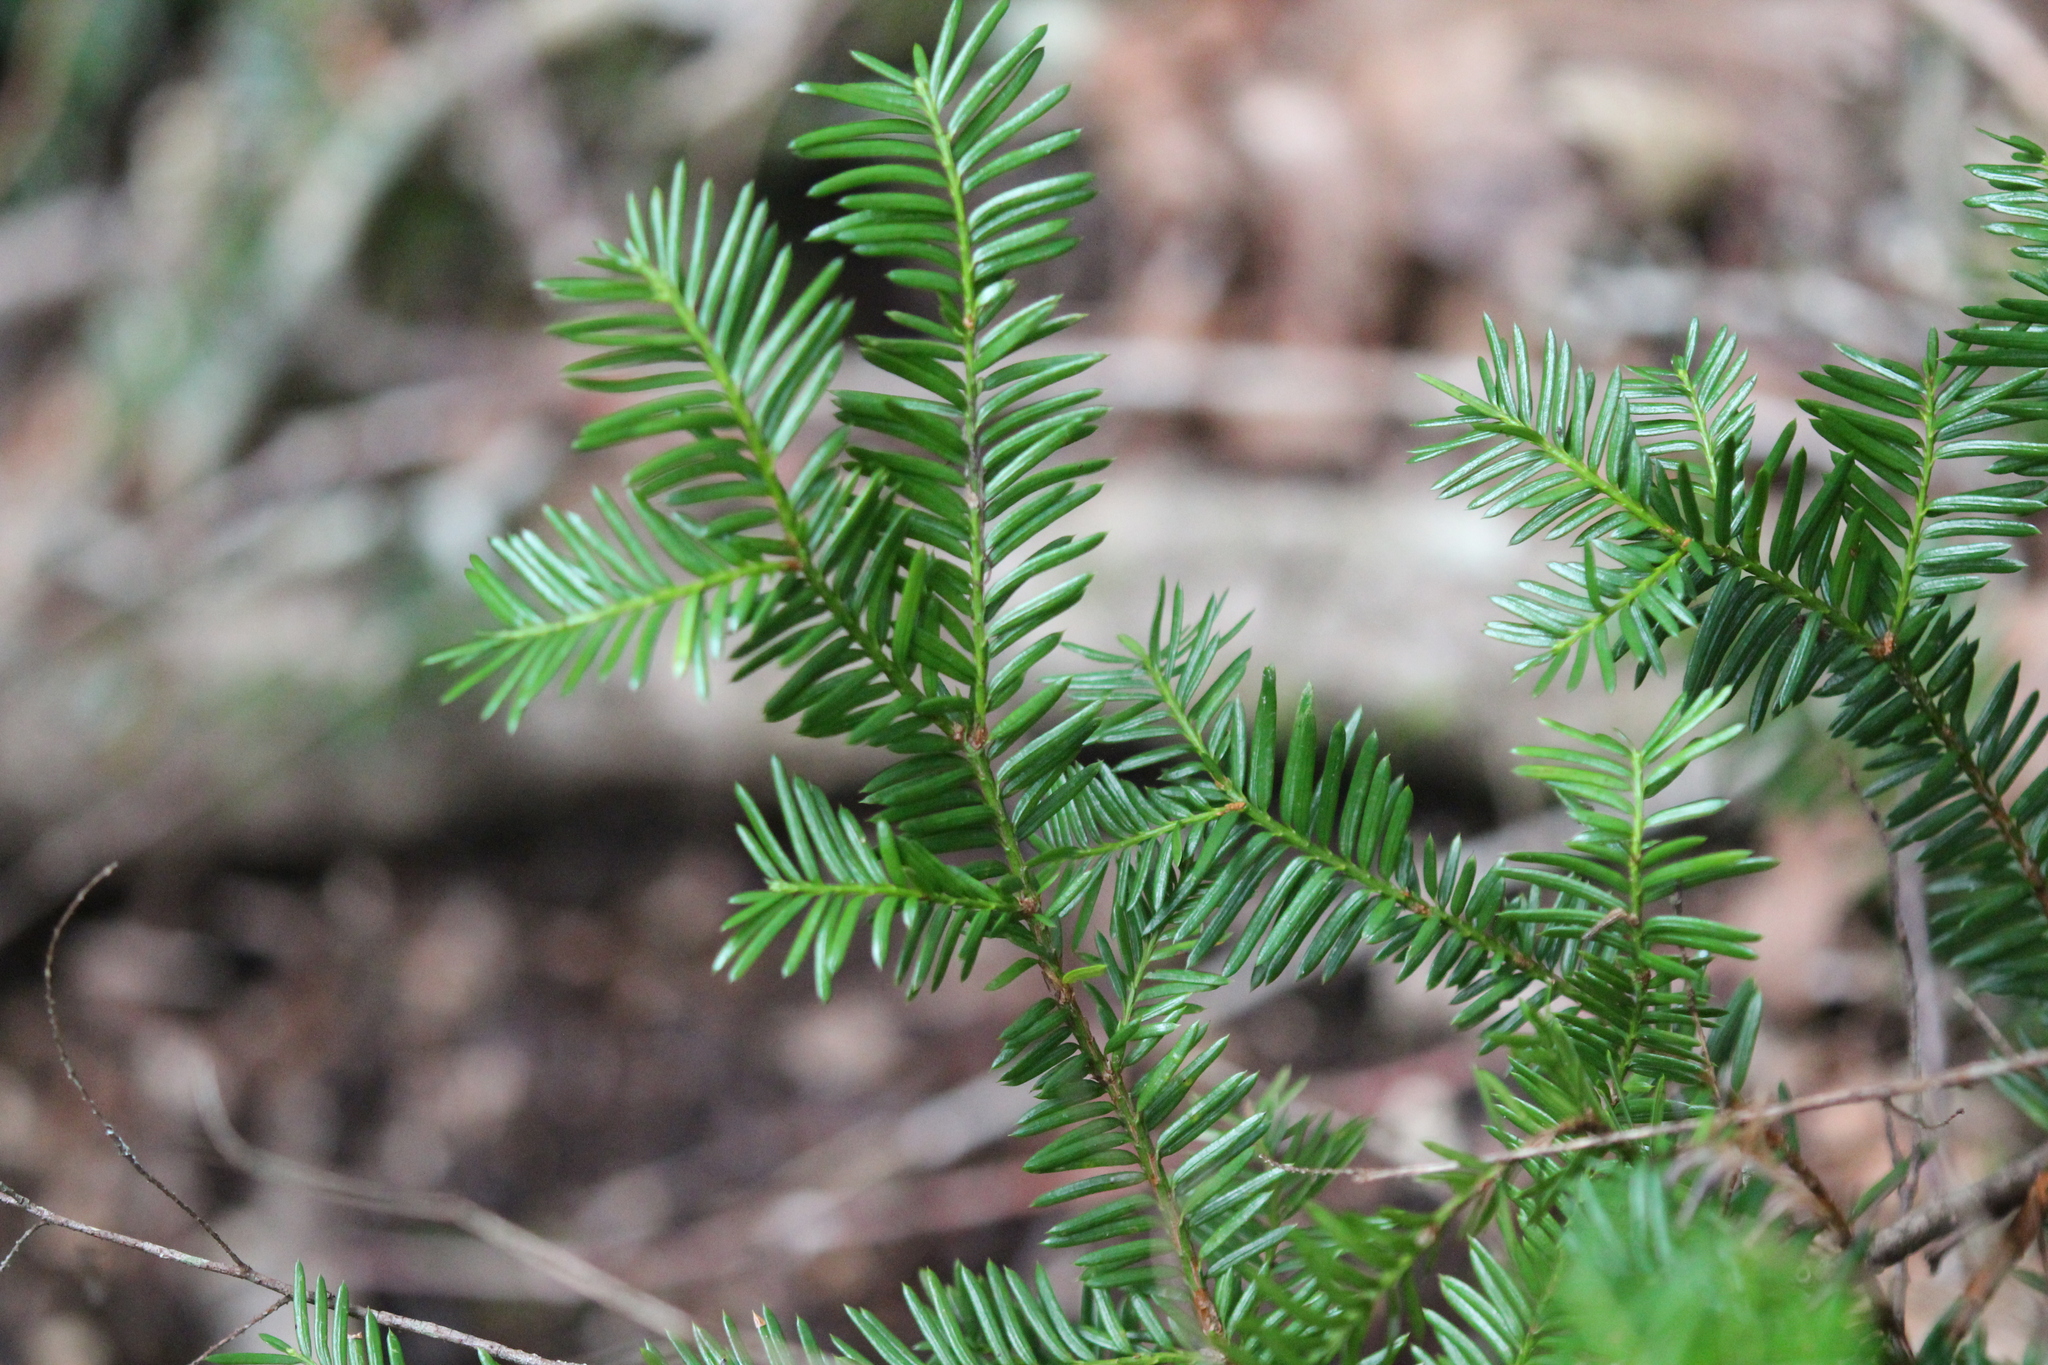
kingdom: Plantae
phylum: Tracheophyta
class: Pinopsida
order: Pinales
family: Taxaceae
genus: Taxus
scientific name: Taxus canadensis
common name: American yew
